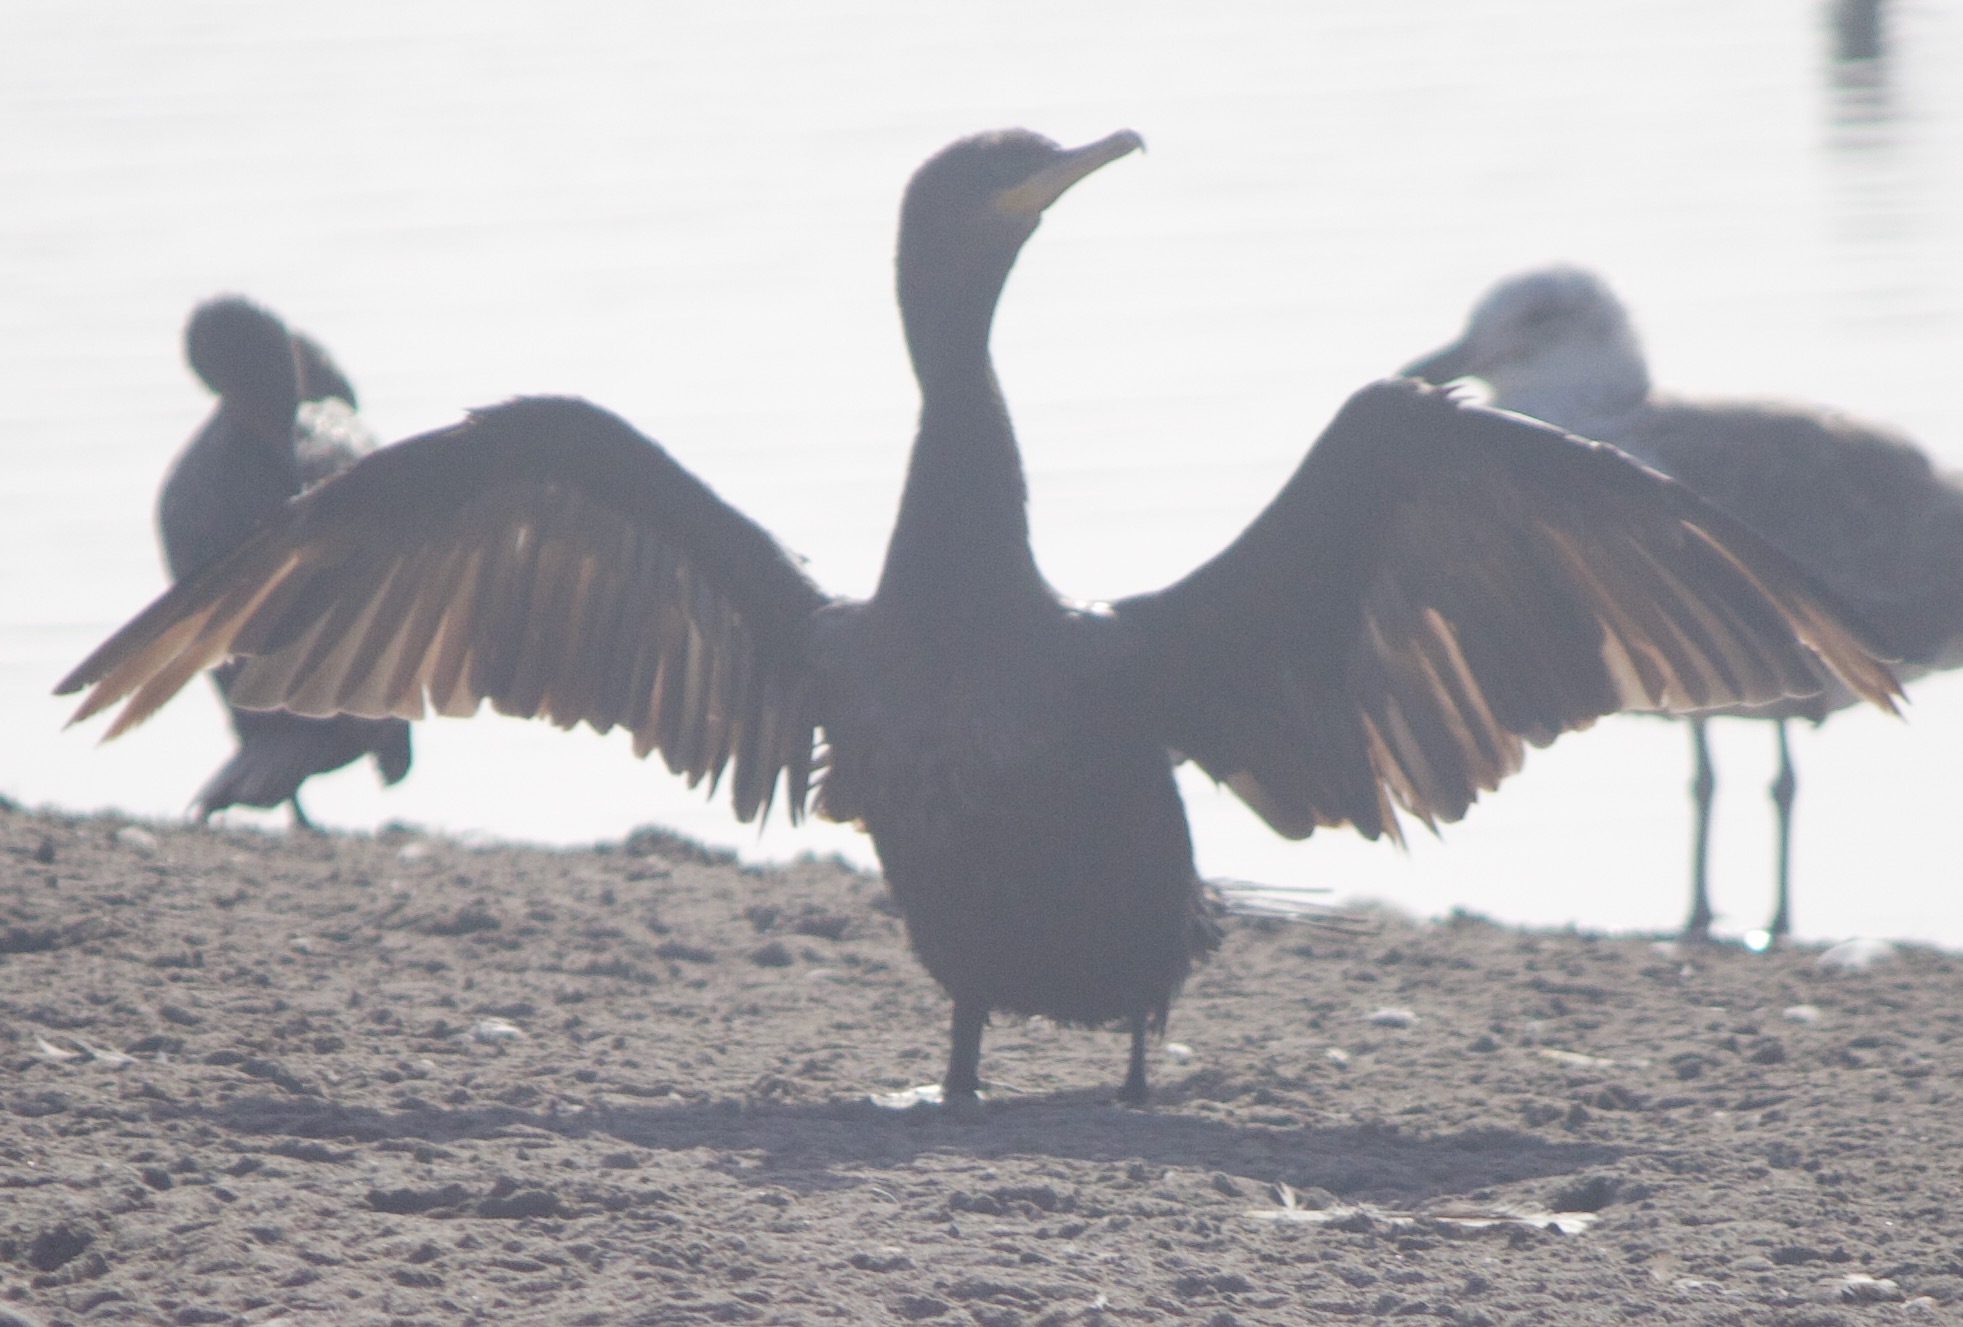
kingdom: Animalia
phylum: Chordata
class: Aves
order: Suliformes
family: Phalacrocoracidae
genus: Phalacrocorax
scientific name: Phalacrocorax brasilianus
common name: Neotropic cormorant
